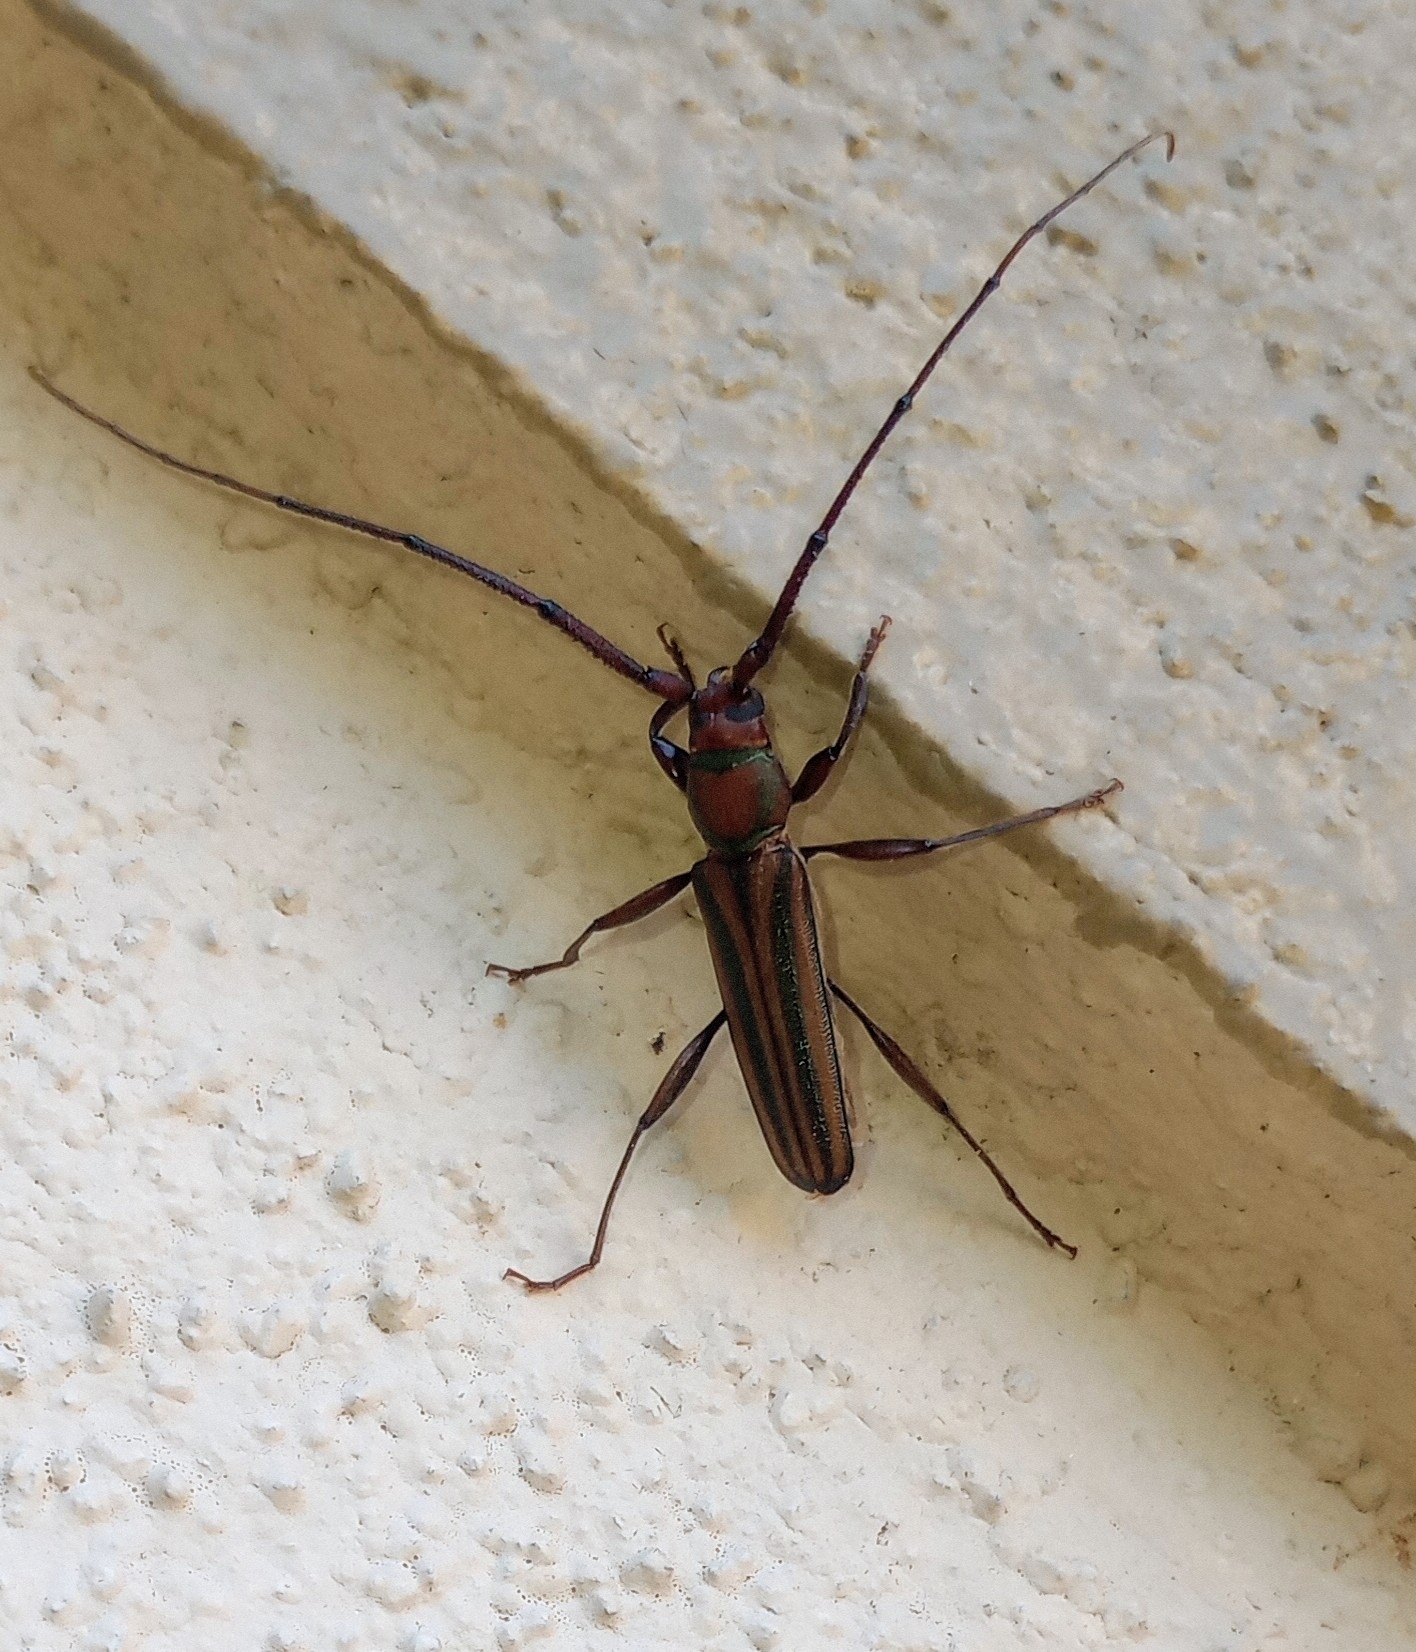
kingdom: Animalia
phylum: Arthropoda
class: Insecta
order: Coleoptera
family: Cerambycidae
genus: Xystrocera
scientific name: Xystrocera globosa
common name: Peach-tree longhorn
